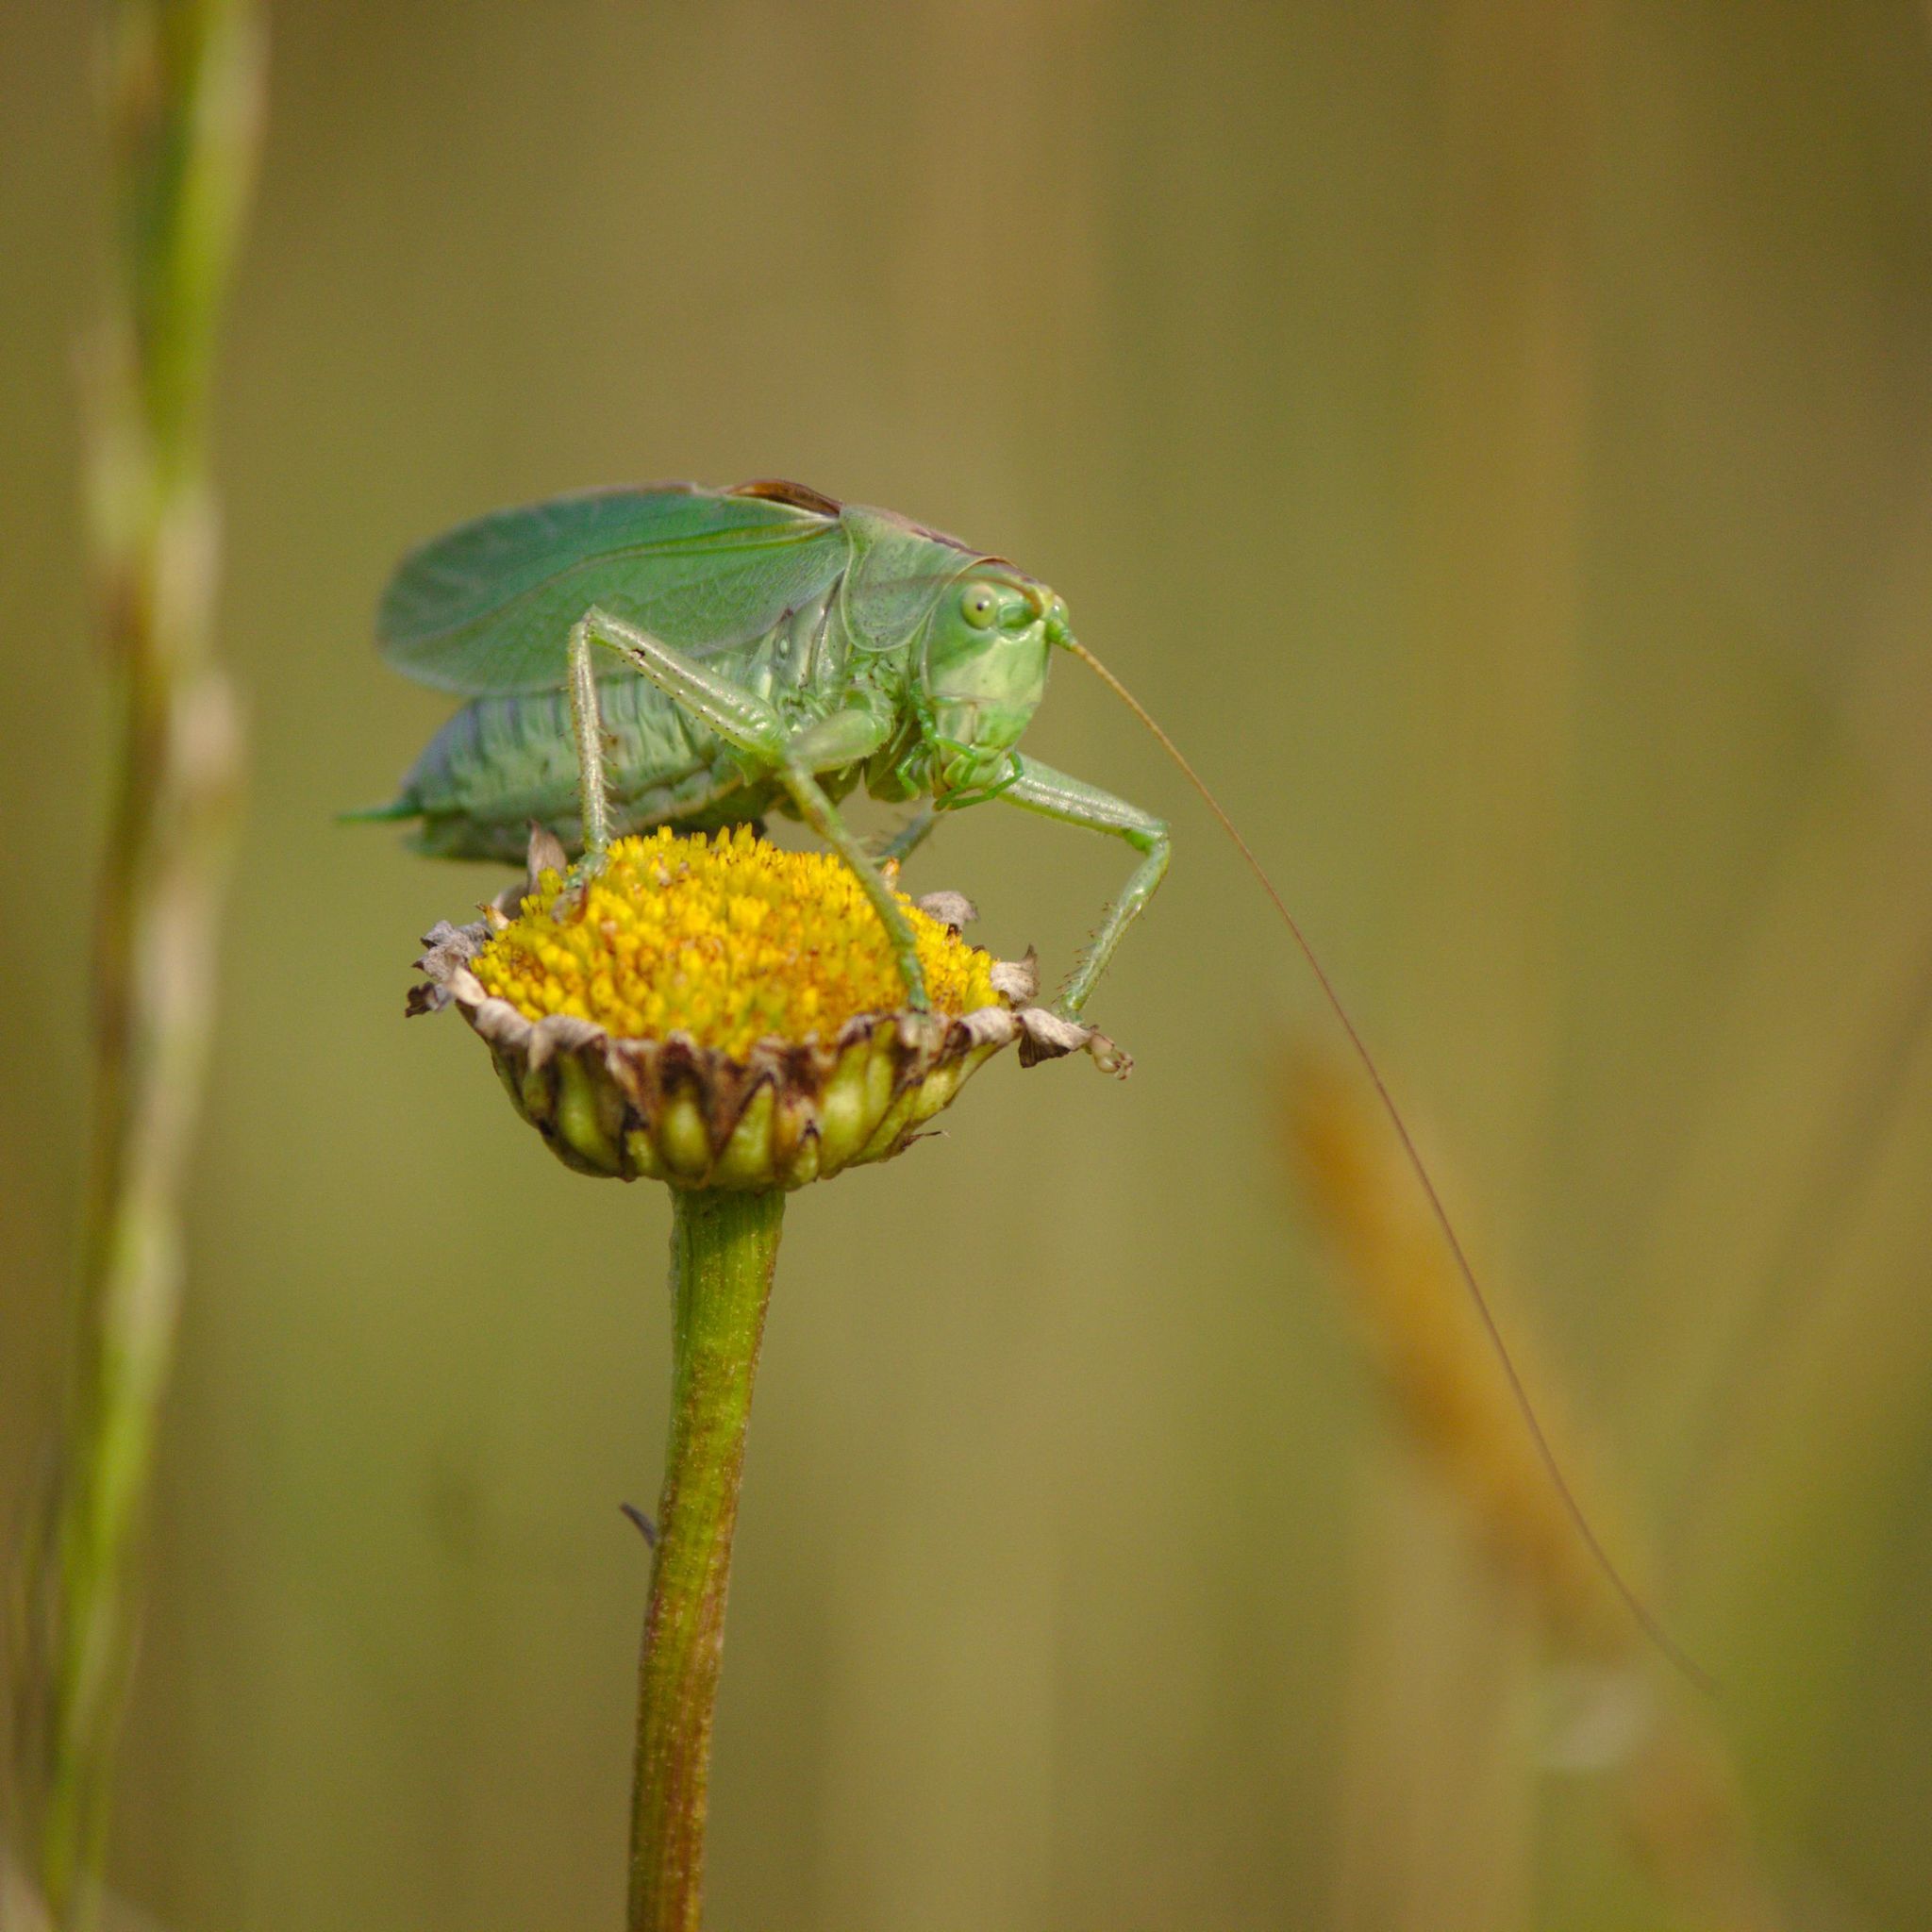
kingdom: Animalia
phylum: Arthropoda
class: Insecta
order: Orthoptera
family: Tettigoniidae
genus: Tettigonia
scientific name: Tettigonia cantans
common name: Upland green bush-cricket
